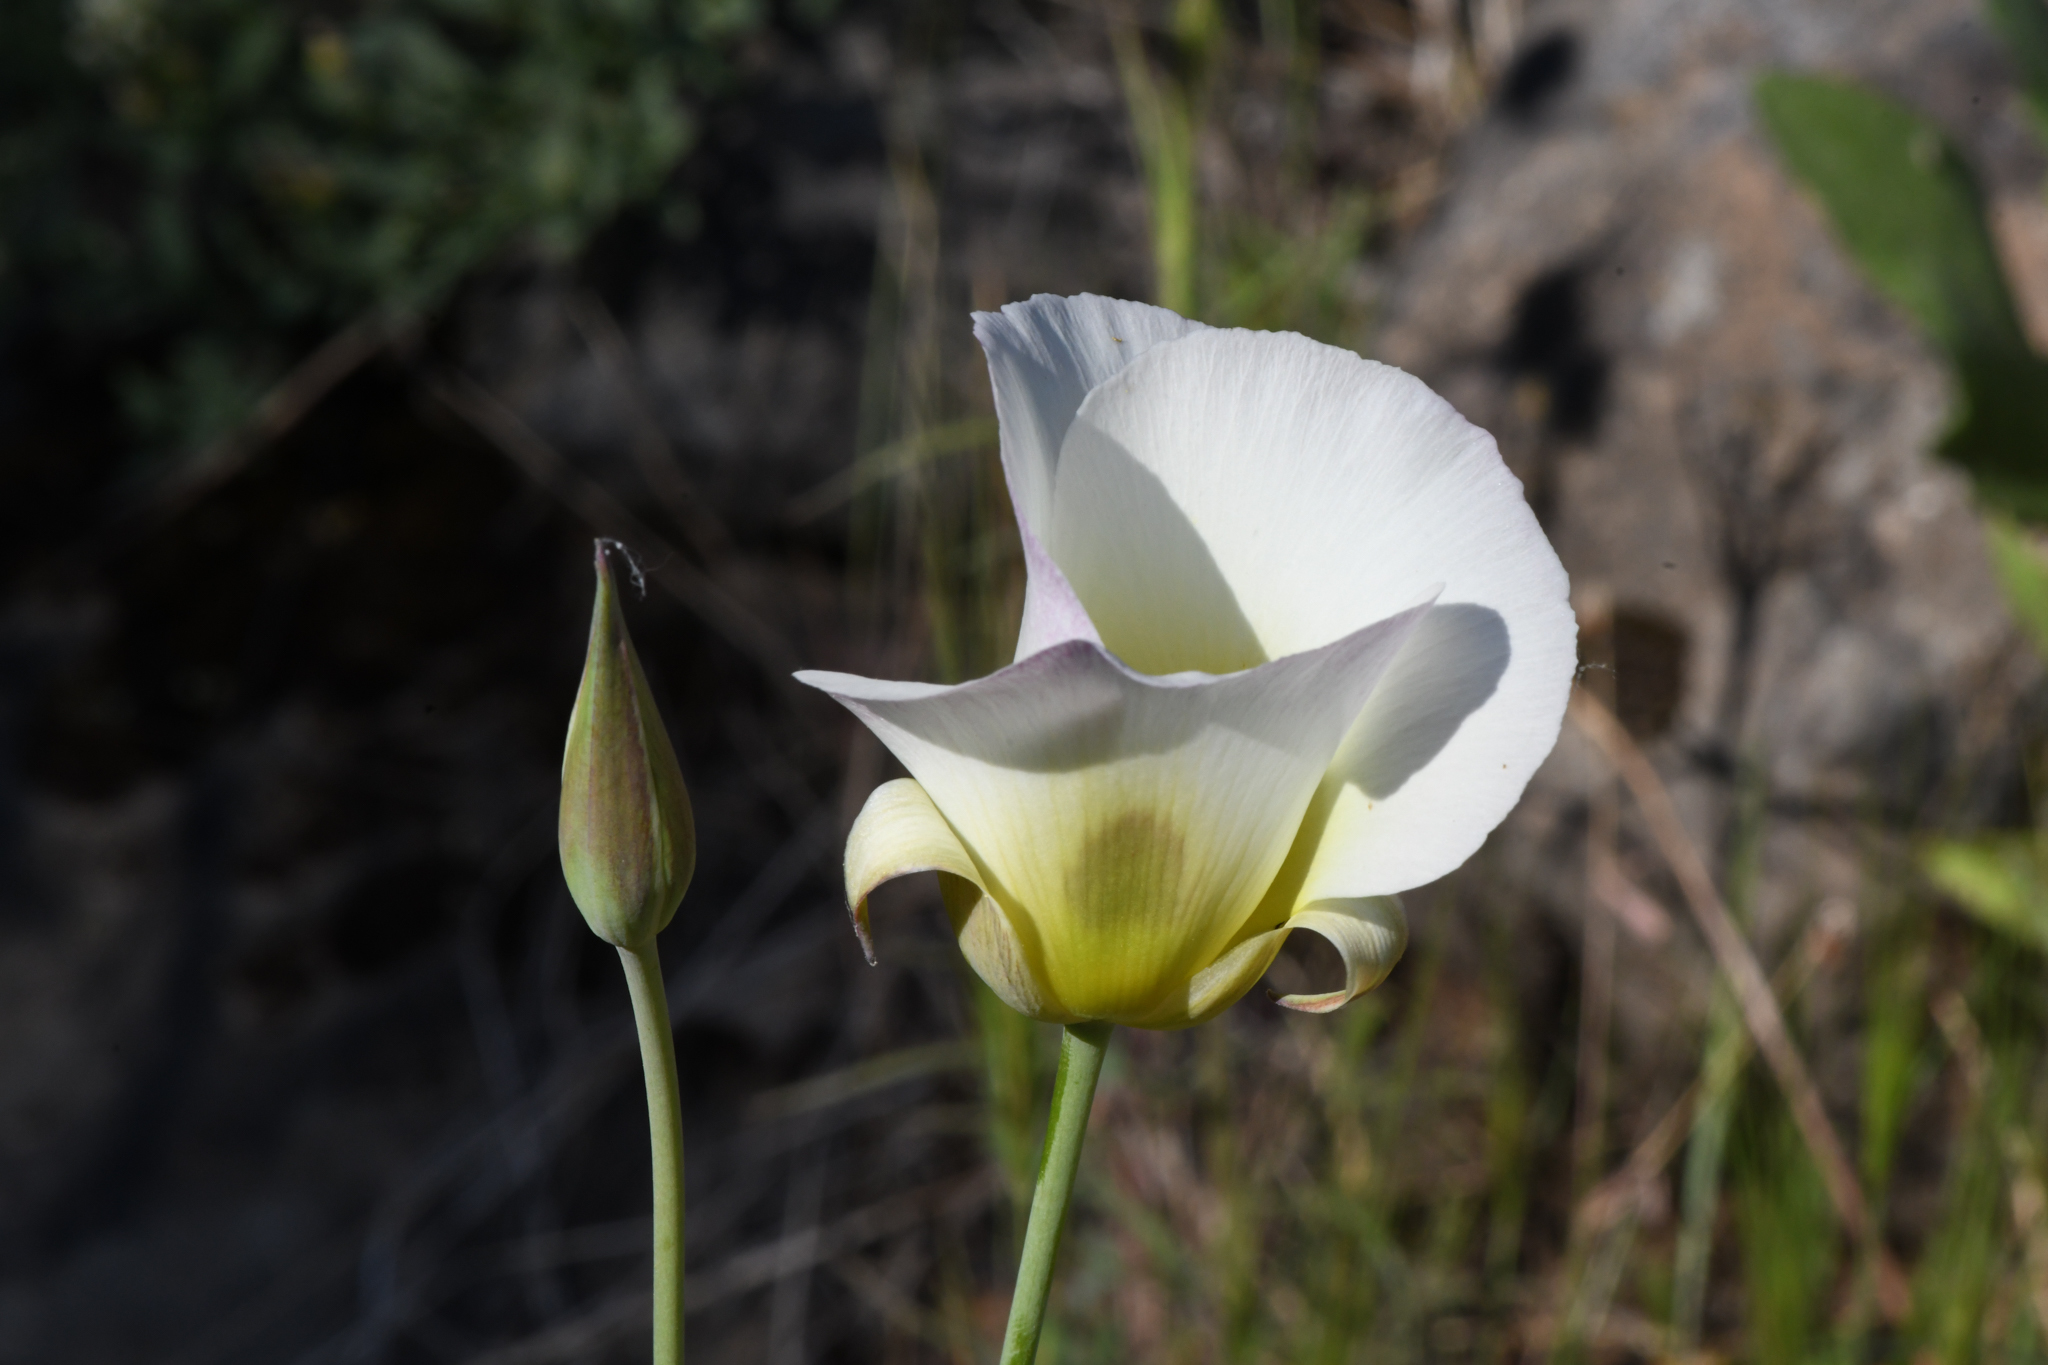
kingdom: Plantae
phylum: Tracheophyta
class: Liliopsida
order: Liliales
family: Liliaceae
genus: Calochortus
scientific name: Calochortus syntrophus
